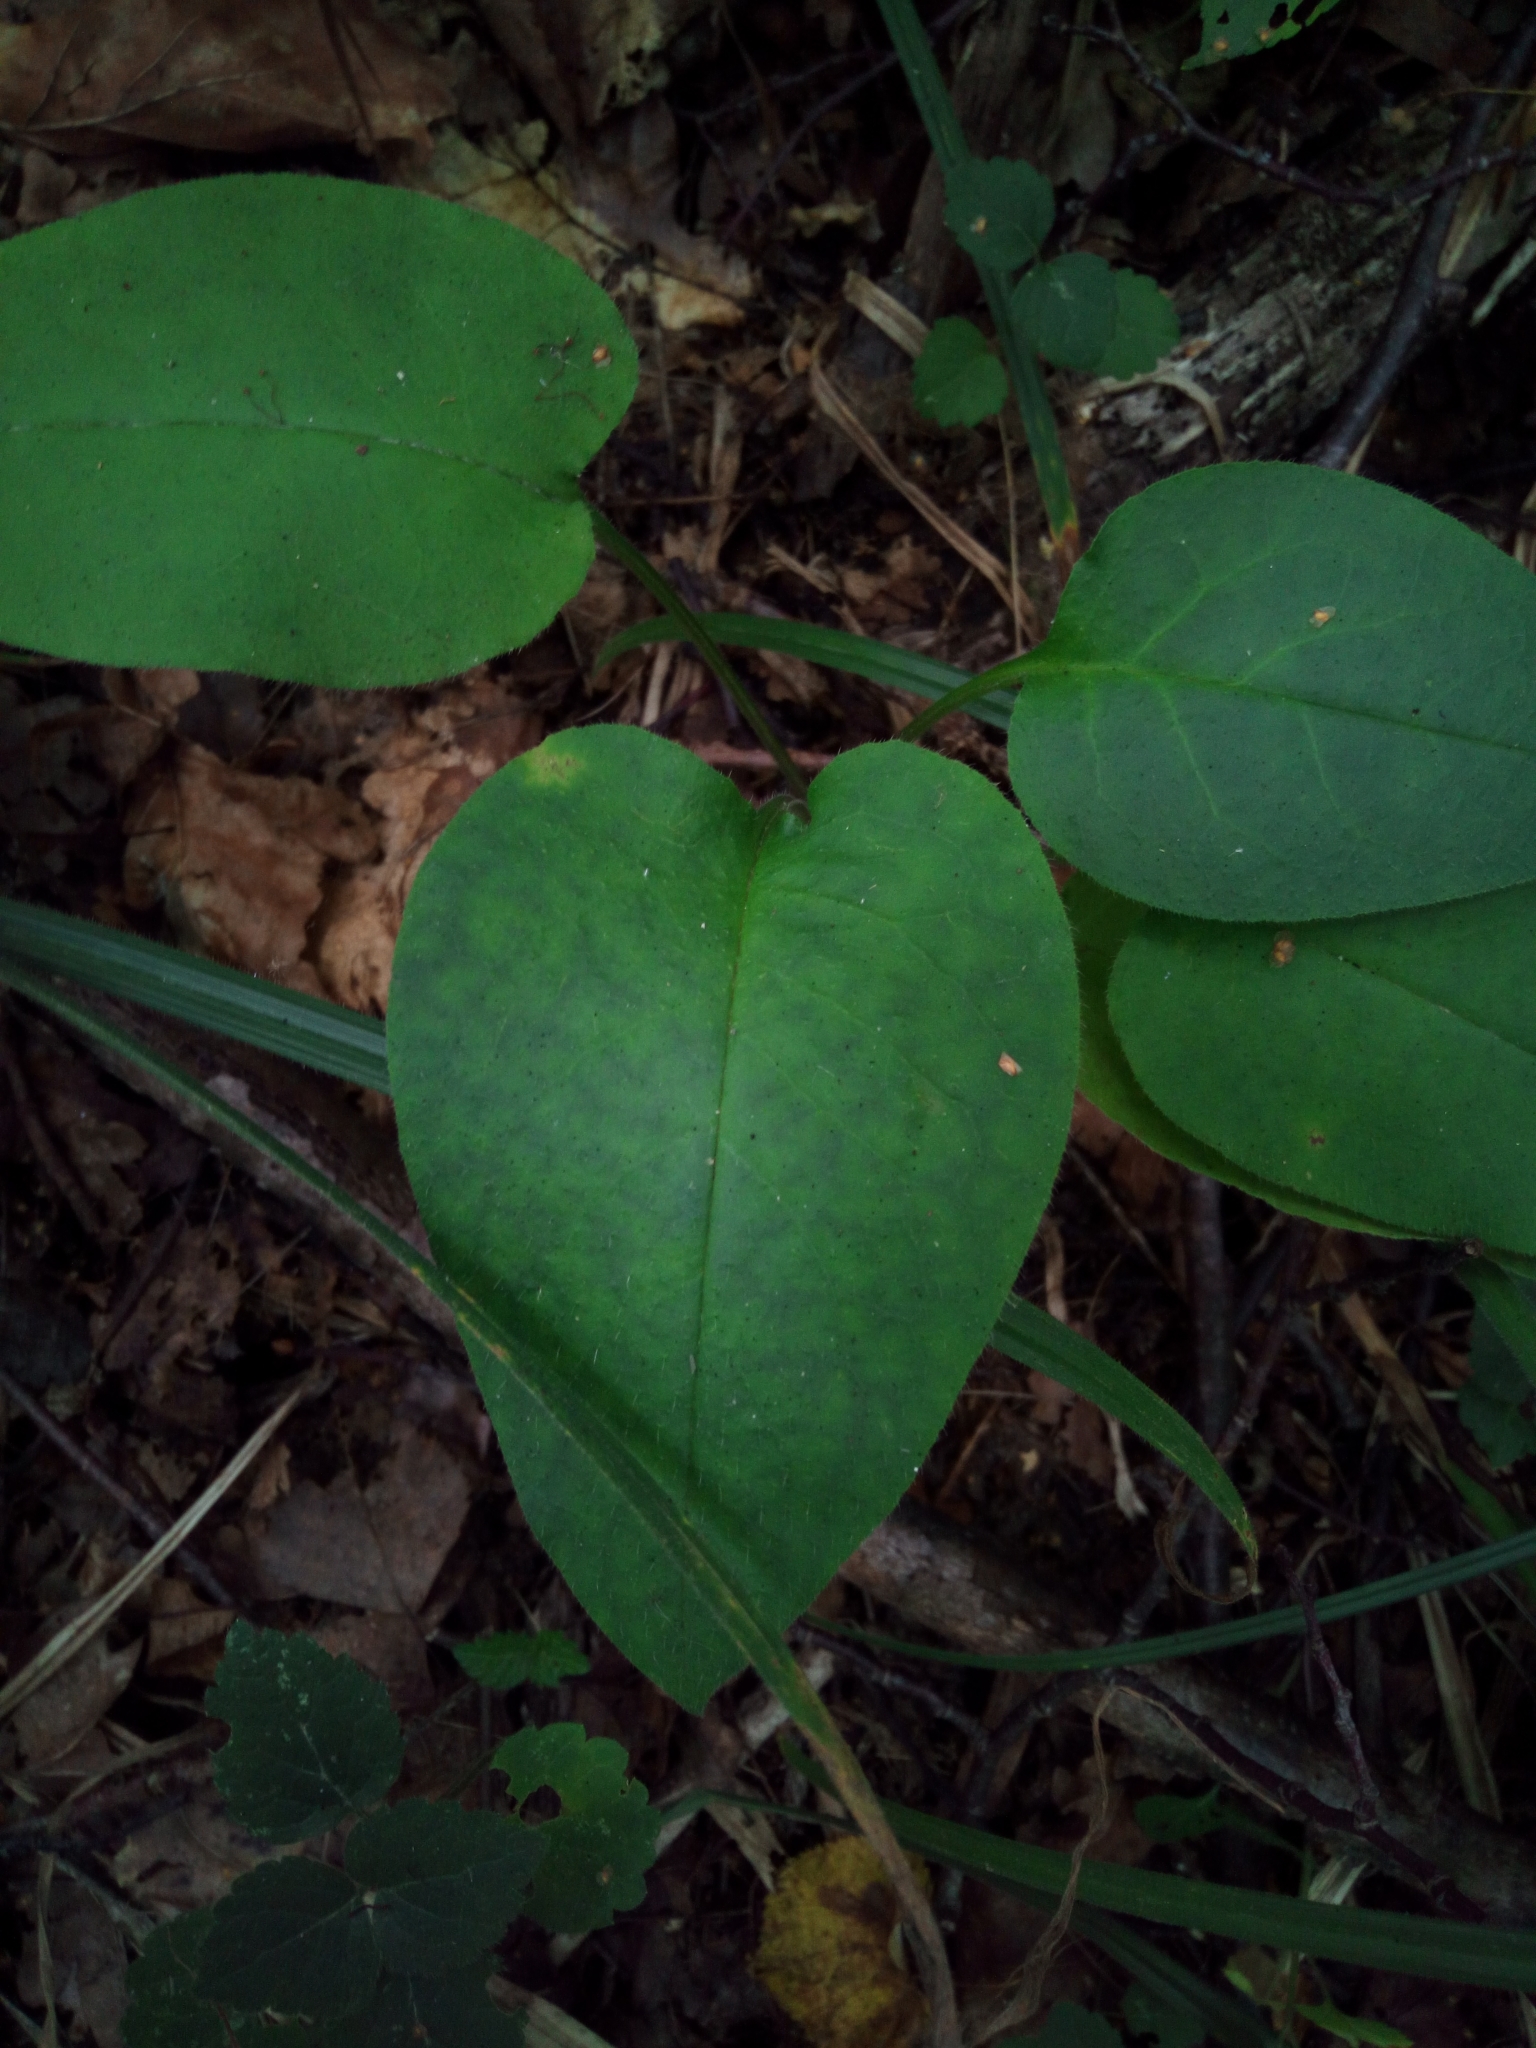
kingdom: Plantae
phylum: Tracheophyta
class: Magnoliopsida
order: Boraginales
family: Boraginaceae
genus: Pulmonaria
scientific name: Pulmonaria obscura
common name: Suffolk lungwort
